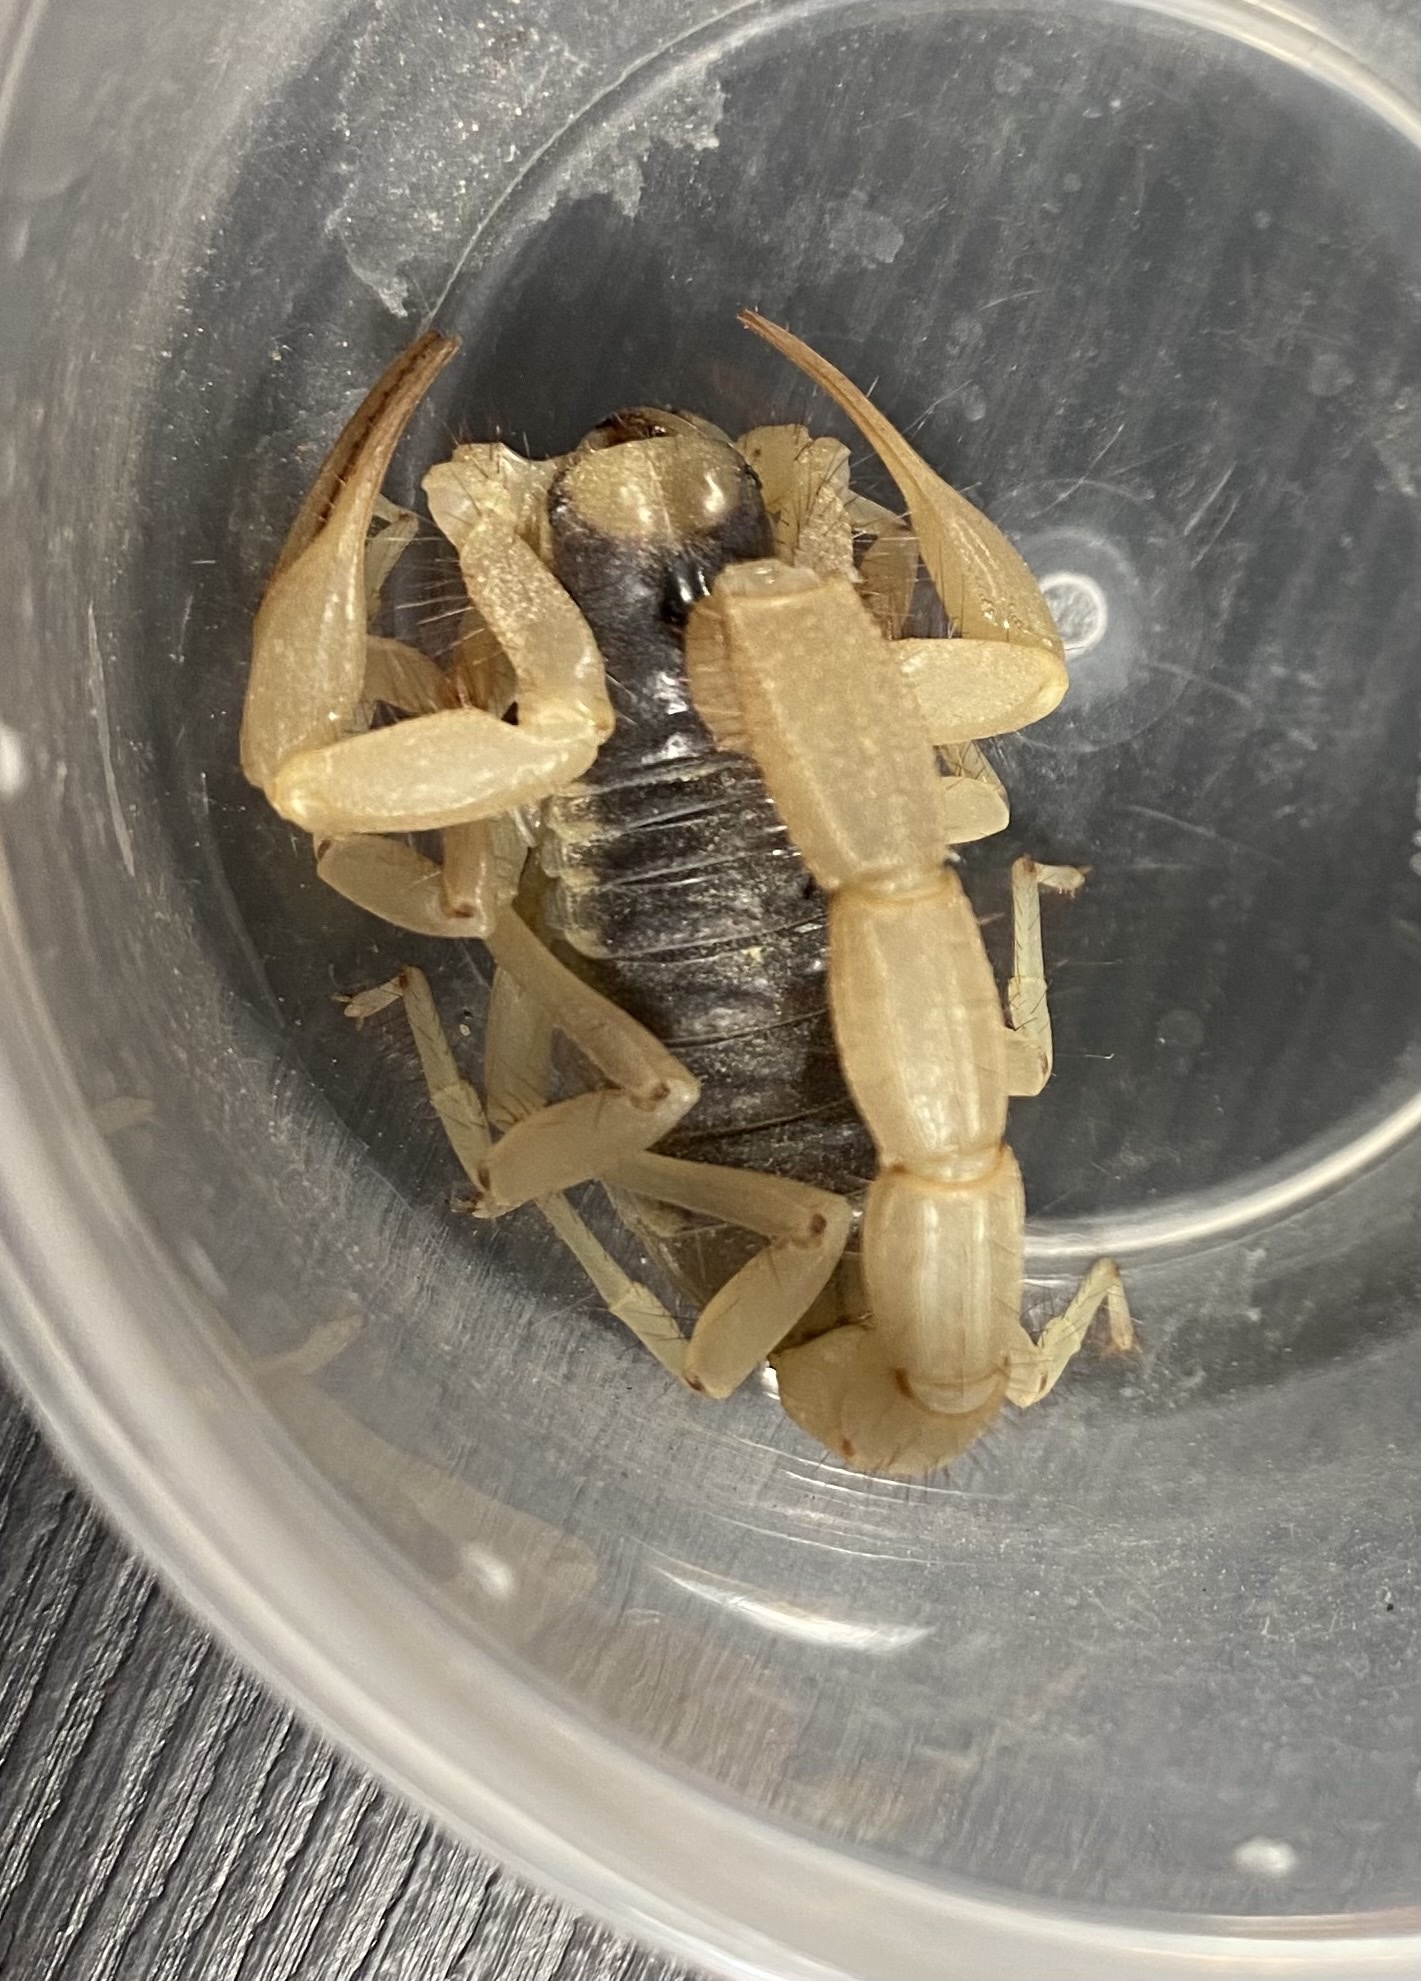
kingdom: Animalia
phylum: Arthropoda
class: Arachnida
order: Scorpiones
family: Hadruridae
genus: Hadrurus
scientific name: Hadrurus arizonensis
